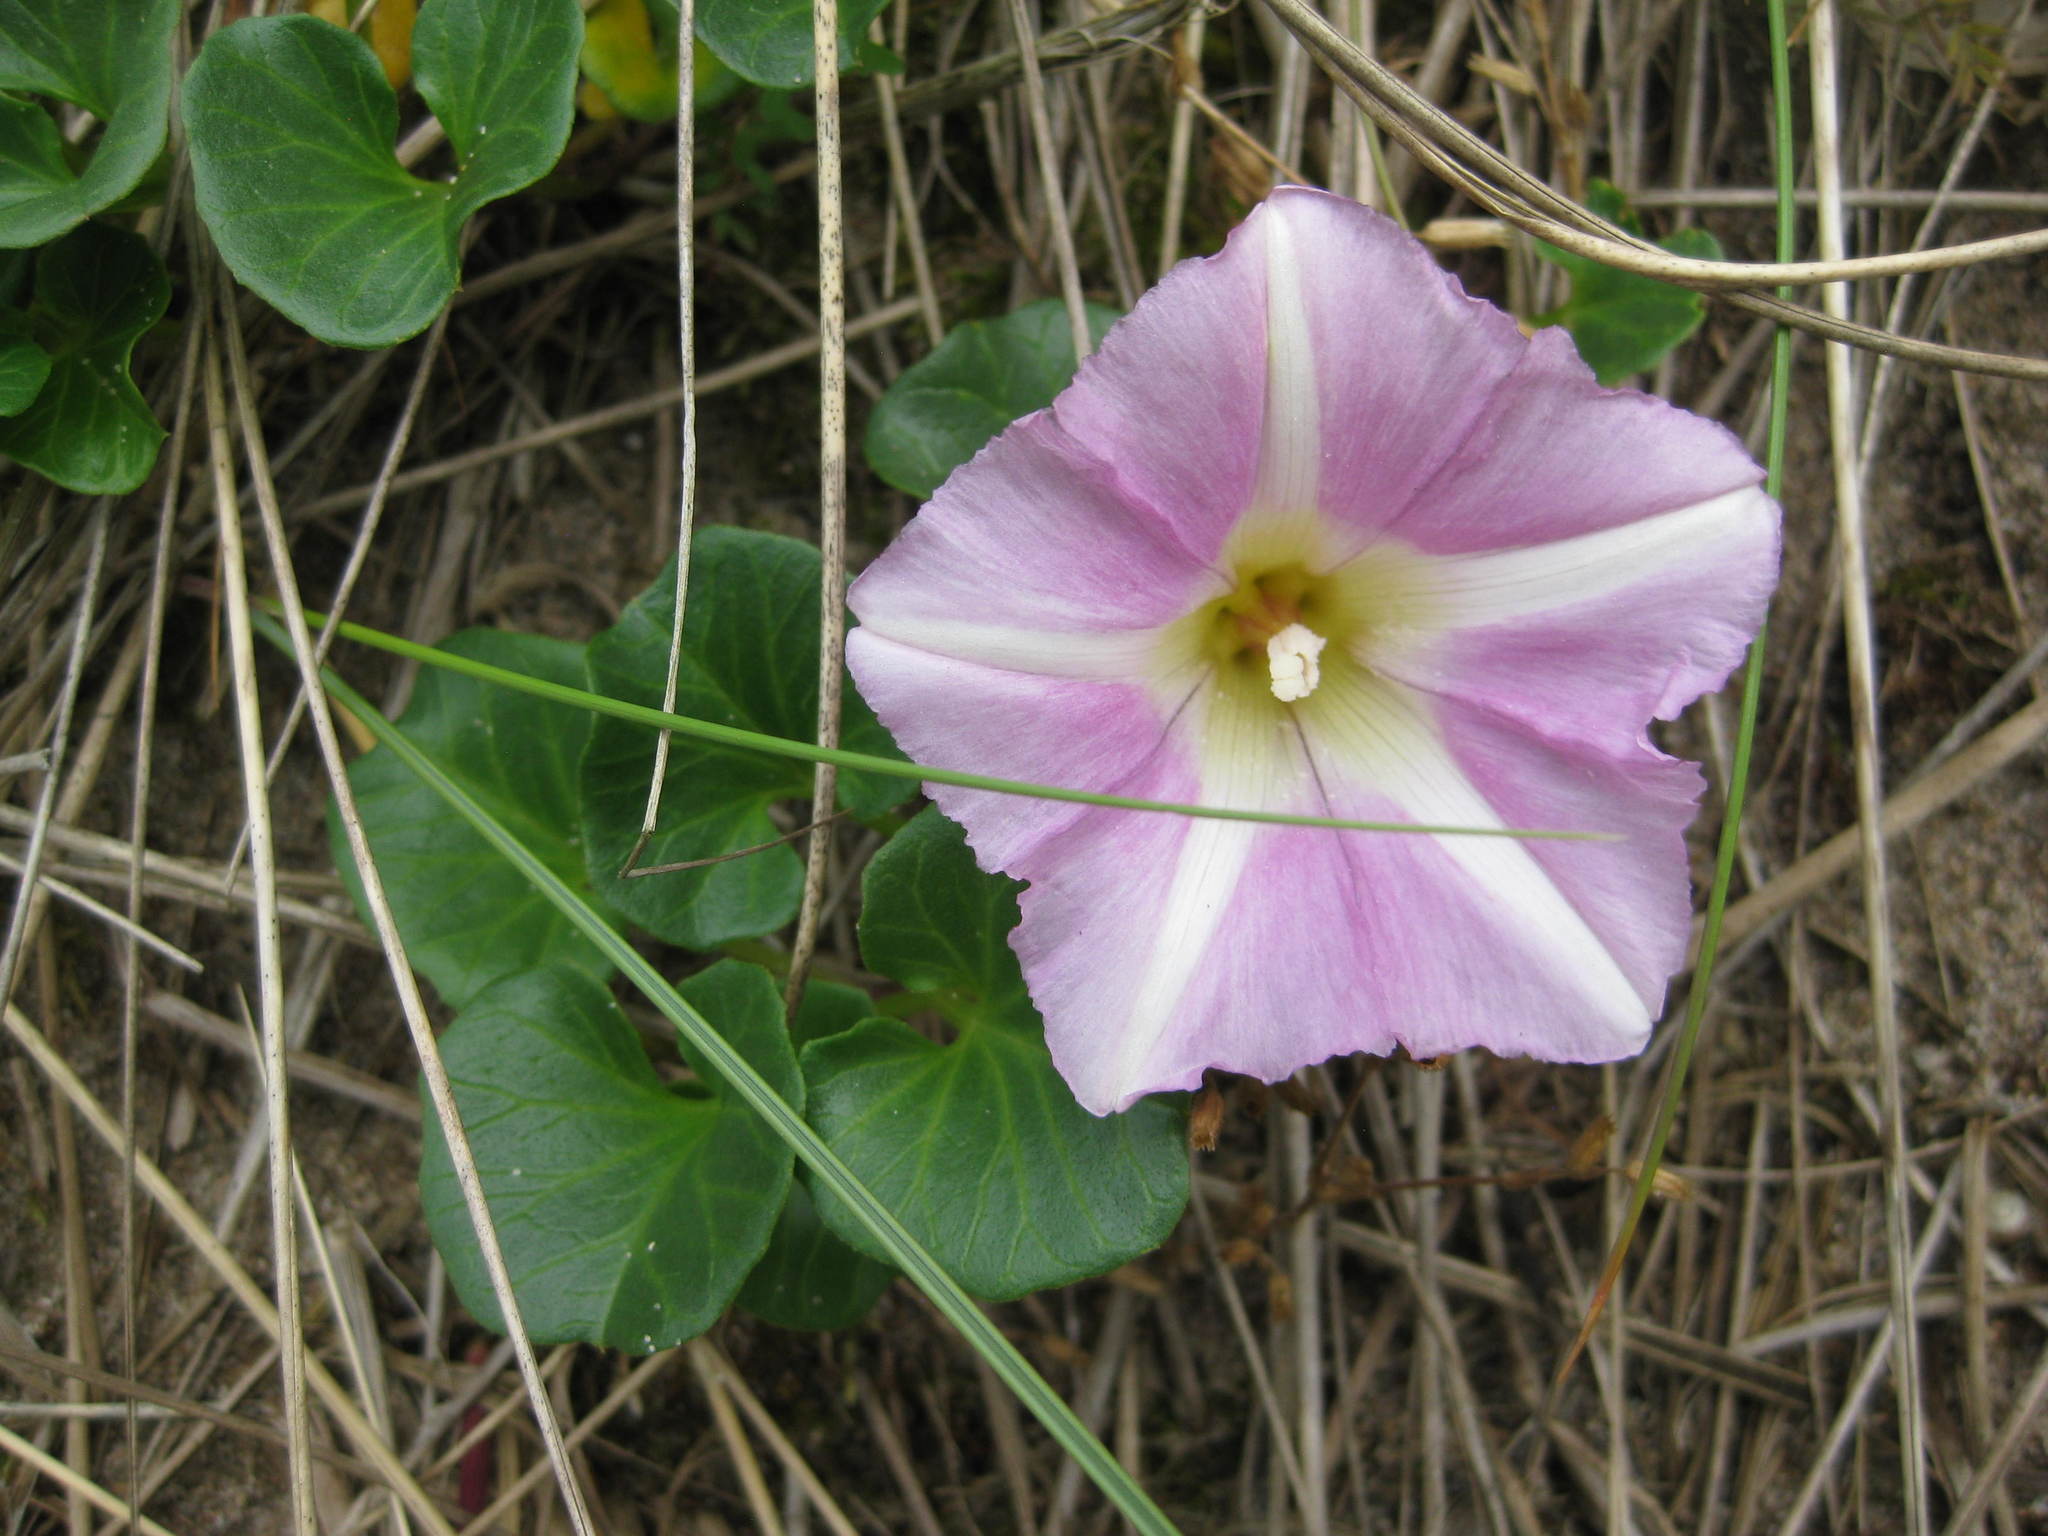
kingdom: Plantae
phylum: Tracheophyta
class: Magnoliopsida
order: Solanales
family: Convolvulaceae
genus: Calystegia
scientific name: Calystegia soldanella
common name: Sea bindweed
